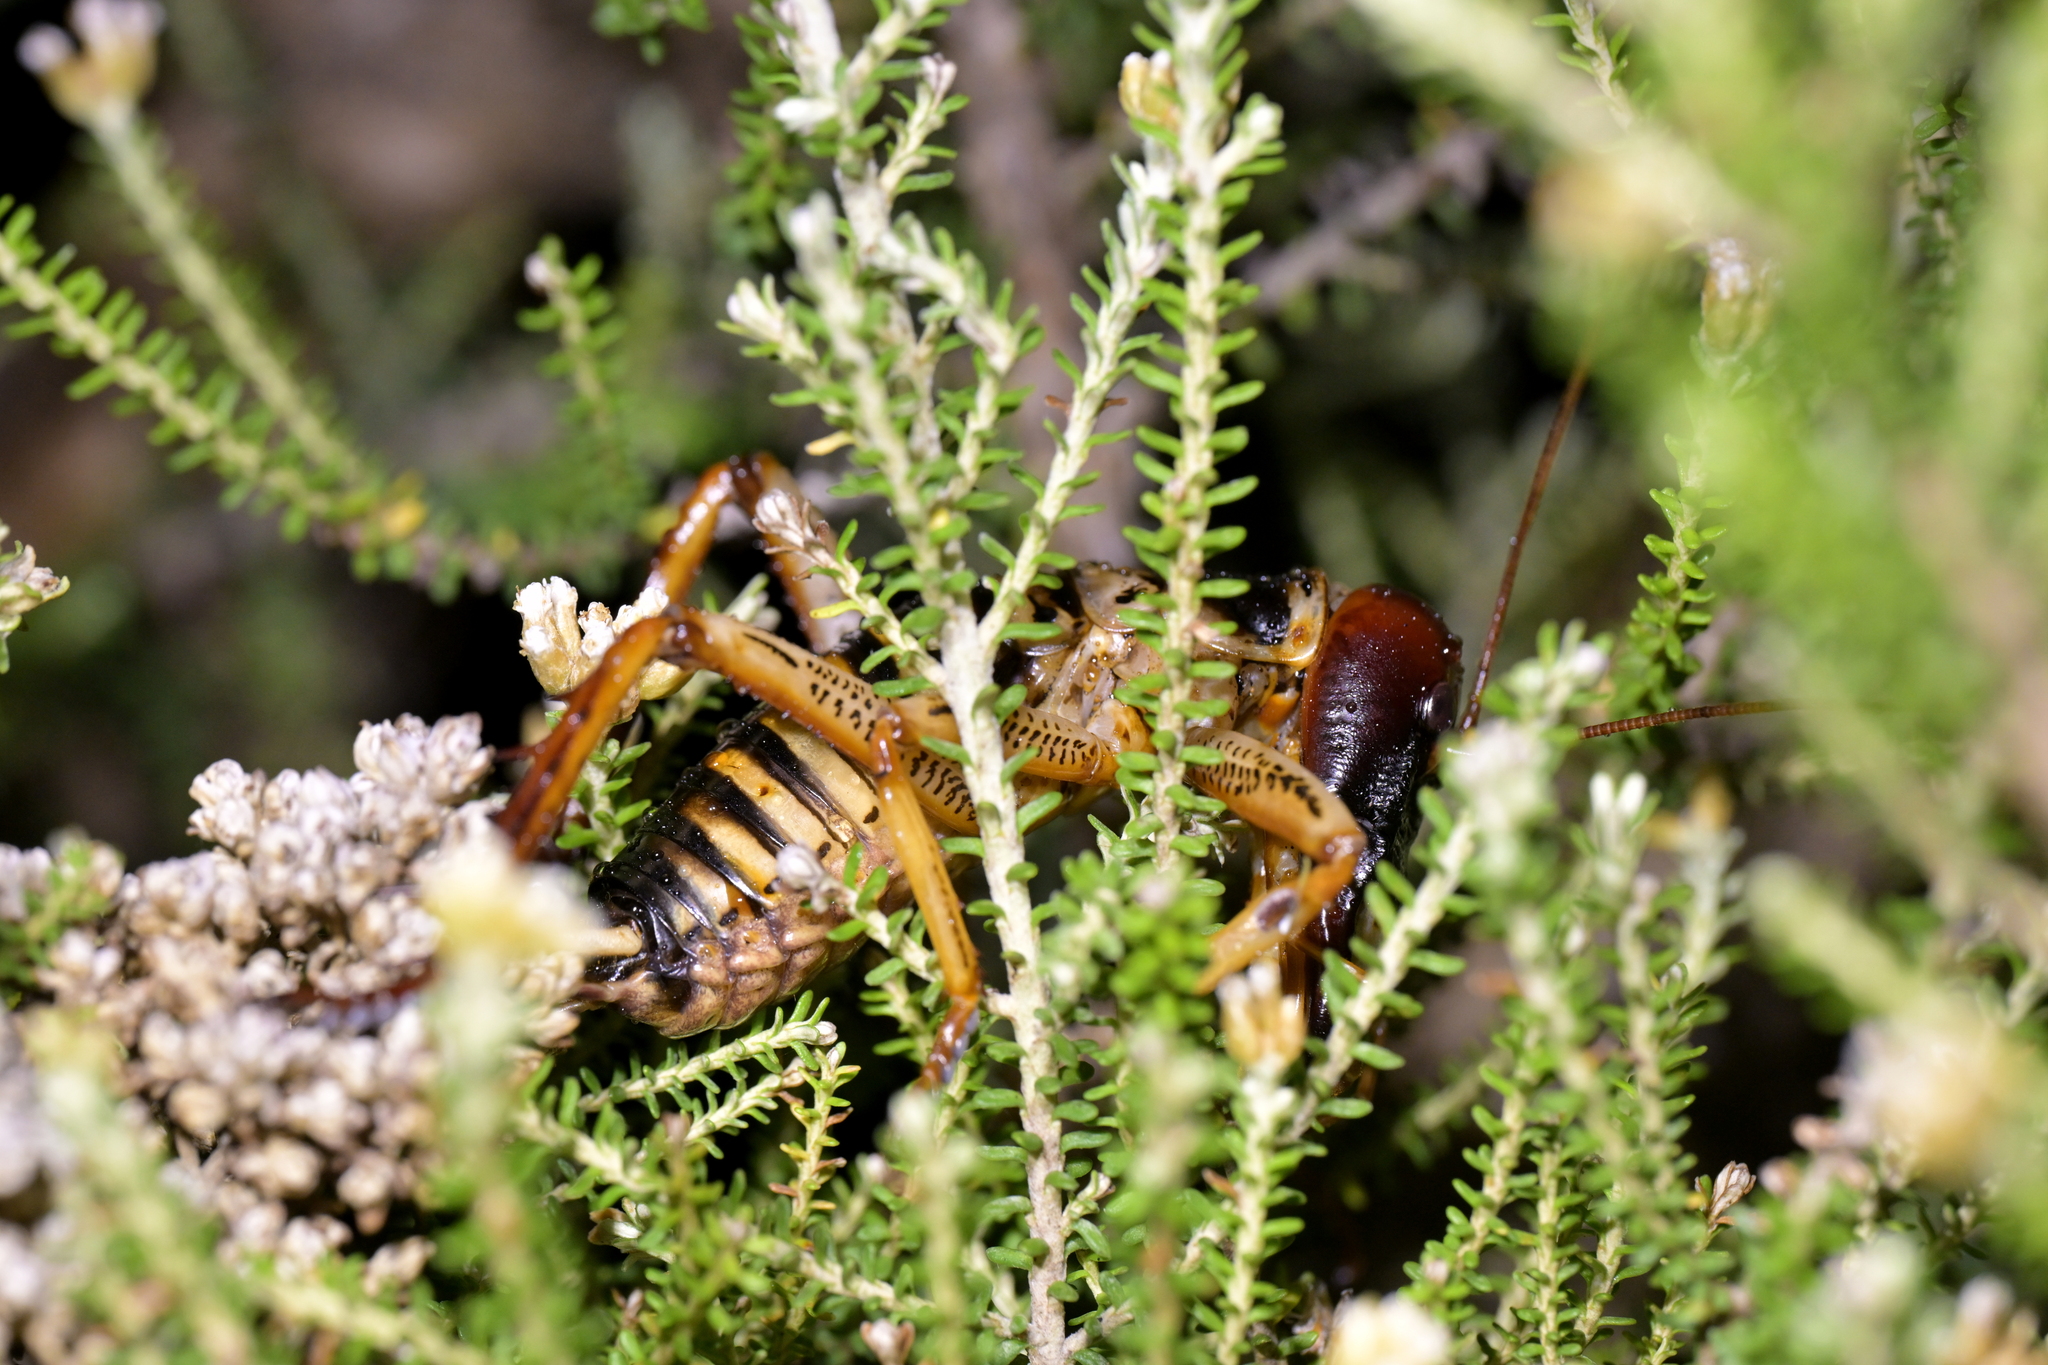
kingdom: Animalia
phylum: Arthropoda
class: Insecta
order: Orthoptera
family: Anostostomatidae
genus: Hemideina
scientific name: Hemideina crassidens
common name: Wellington tree weta
